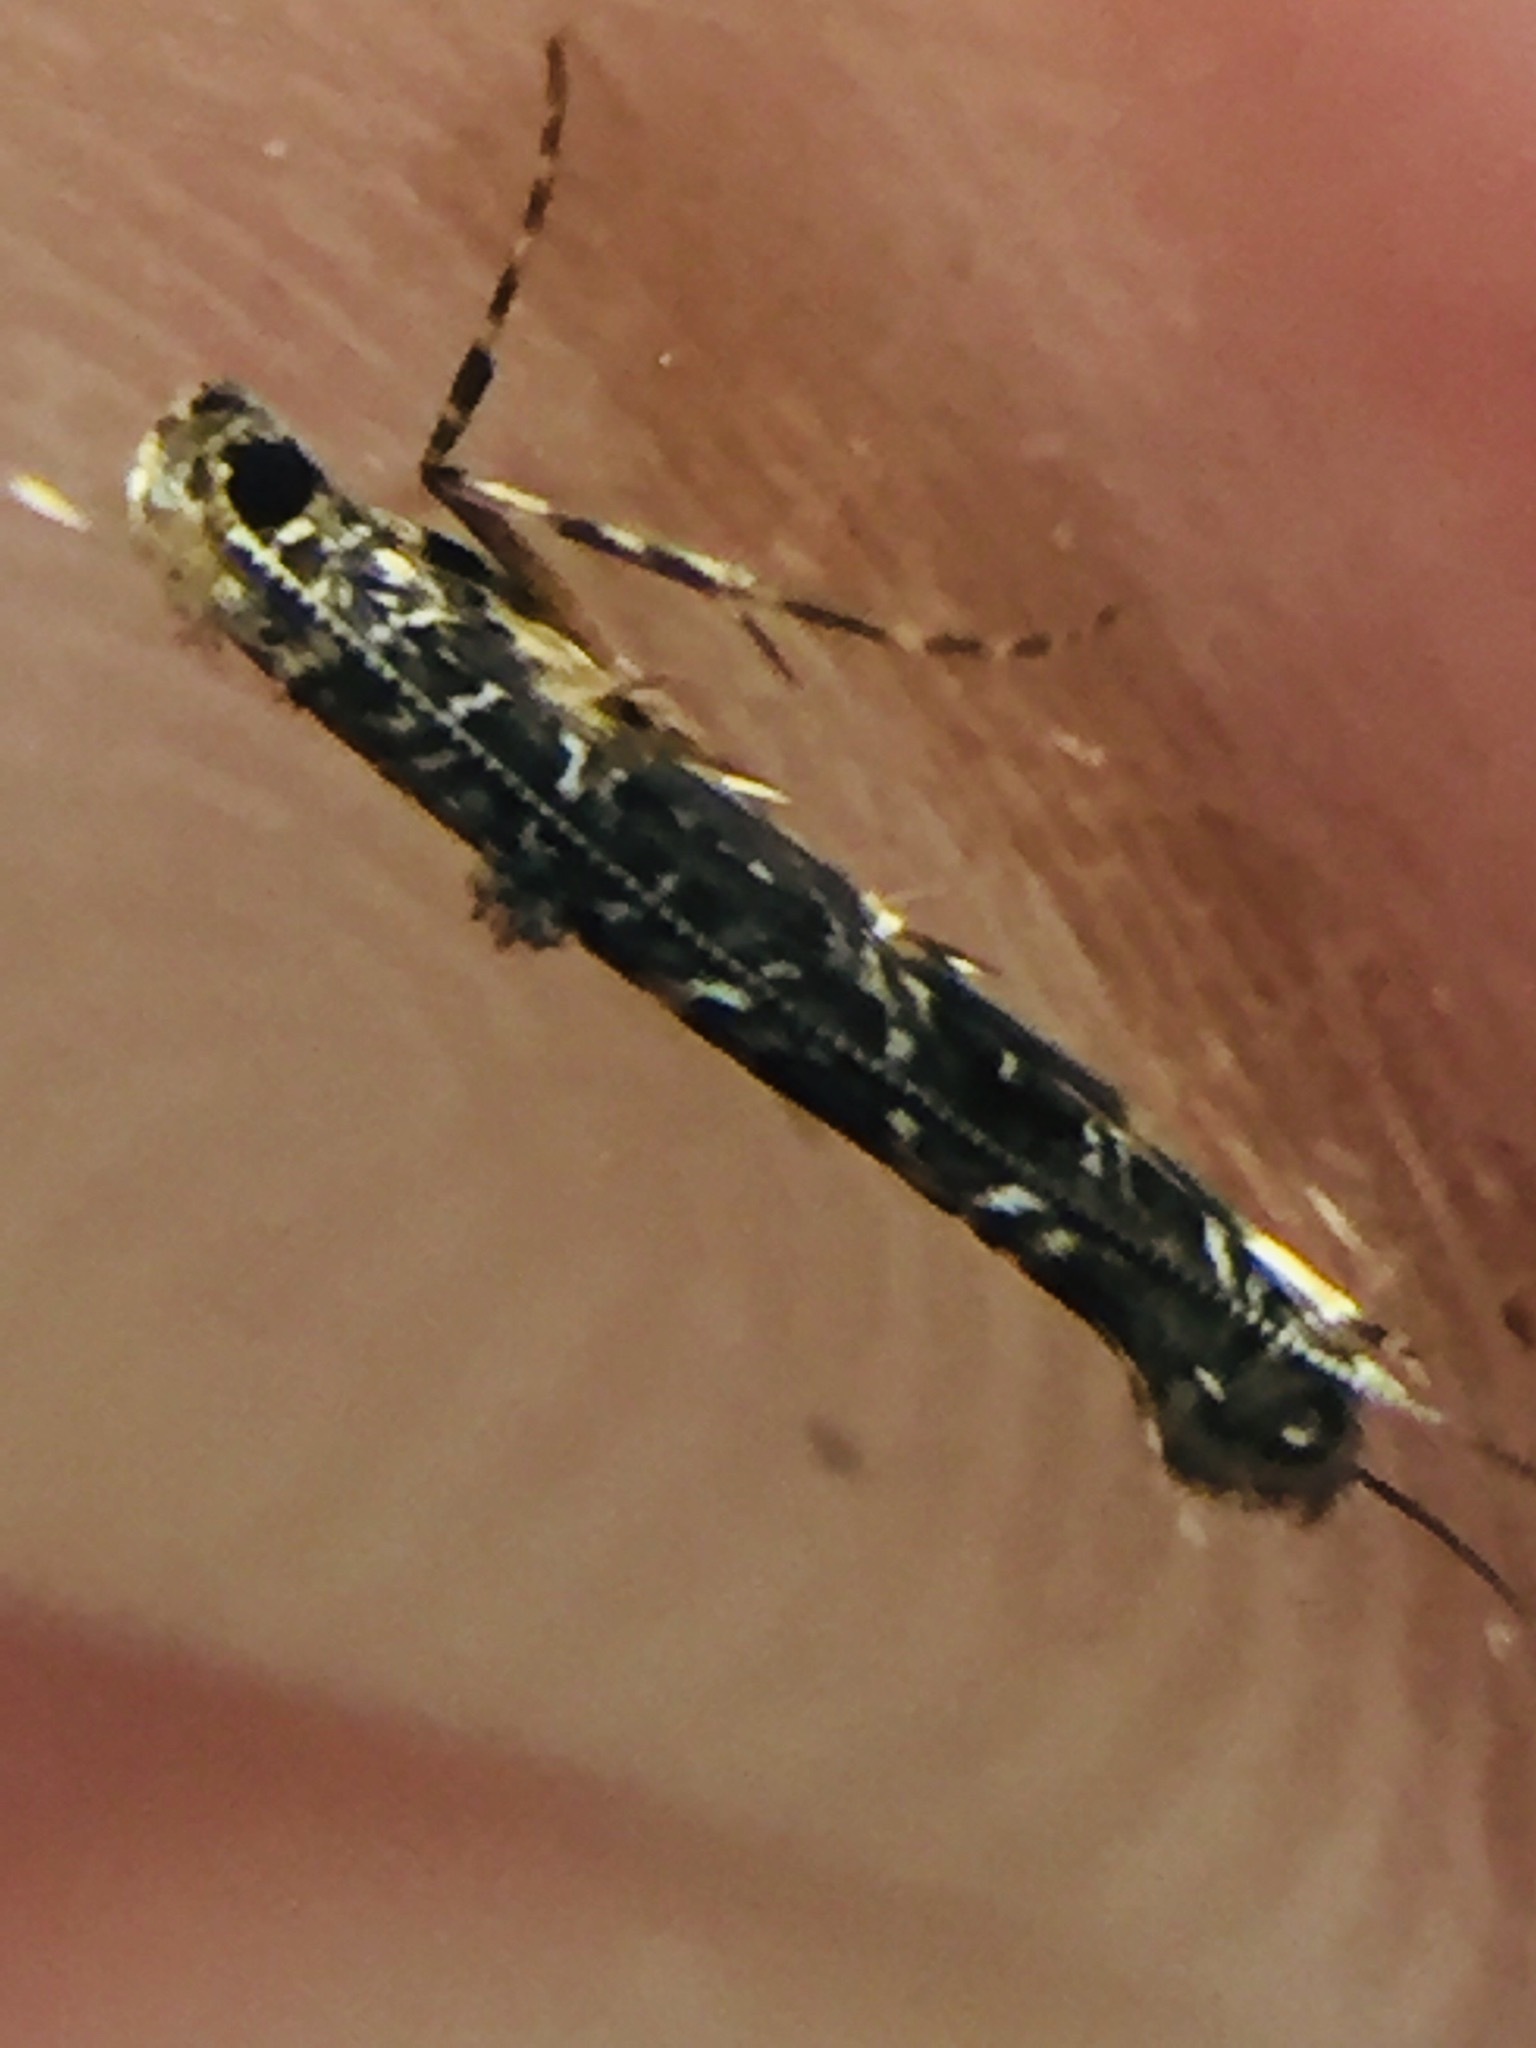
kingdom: Animalia
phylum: Arthropoda
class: Insecta
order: Lepidoptera
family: Gracillariidae
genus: Conopomorpha
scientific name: Conopomorpha cyanospila
